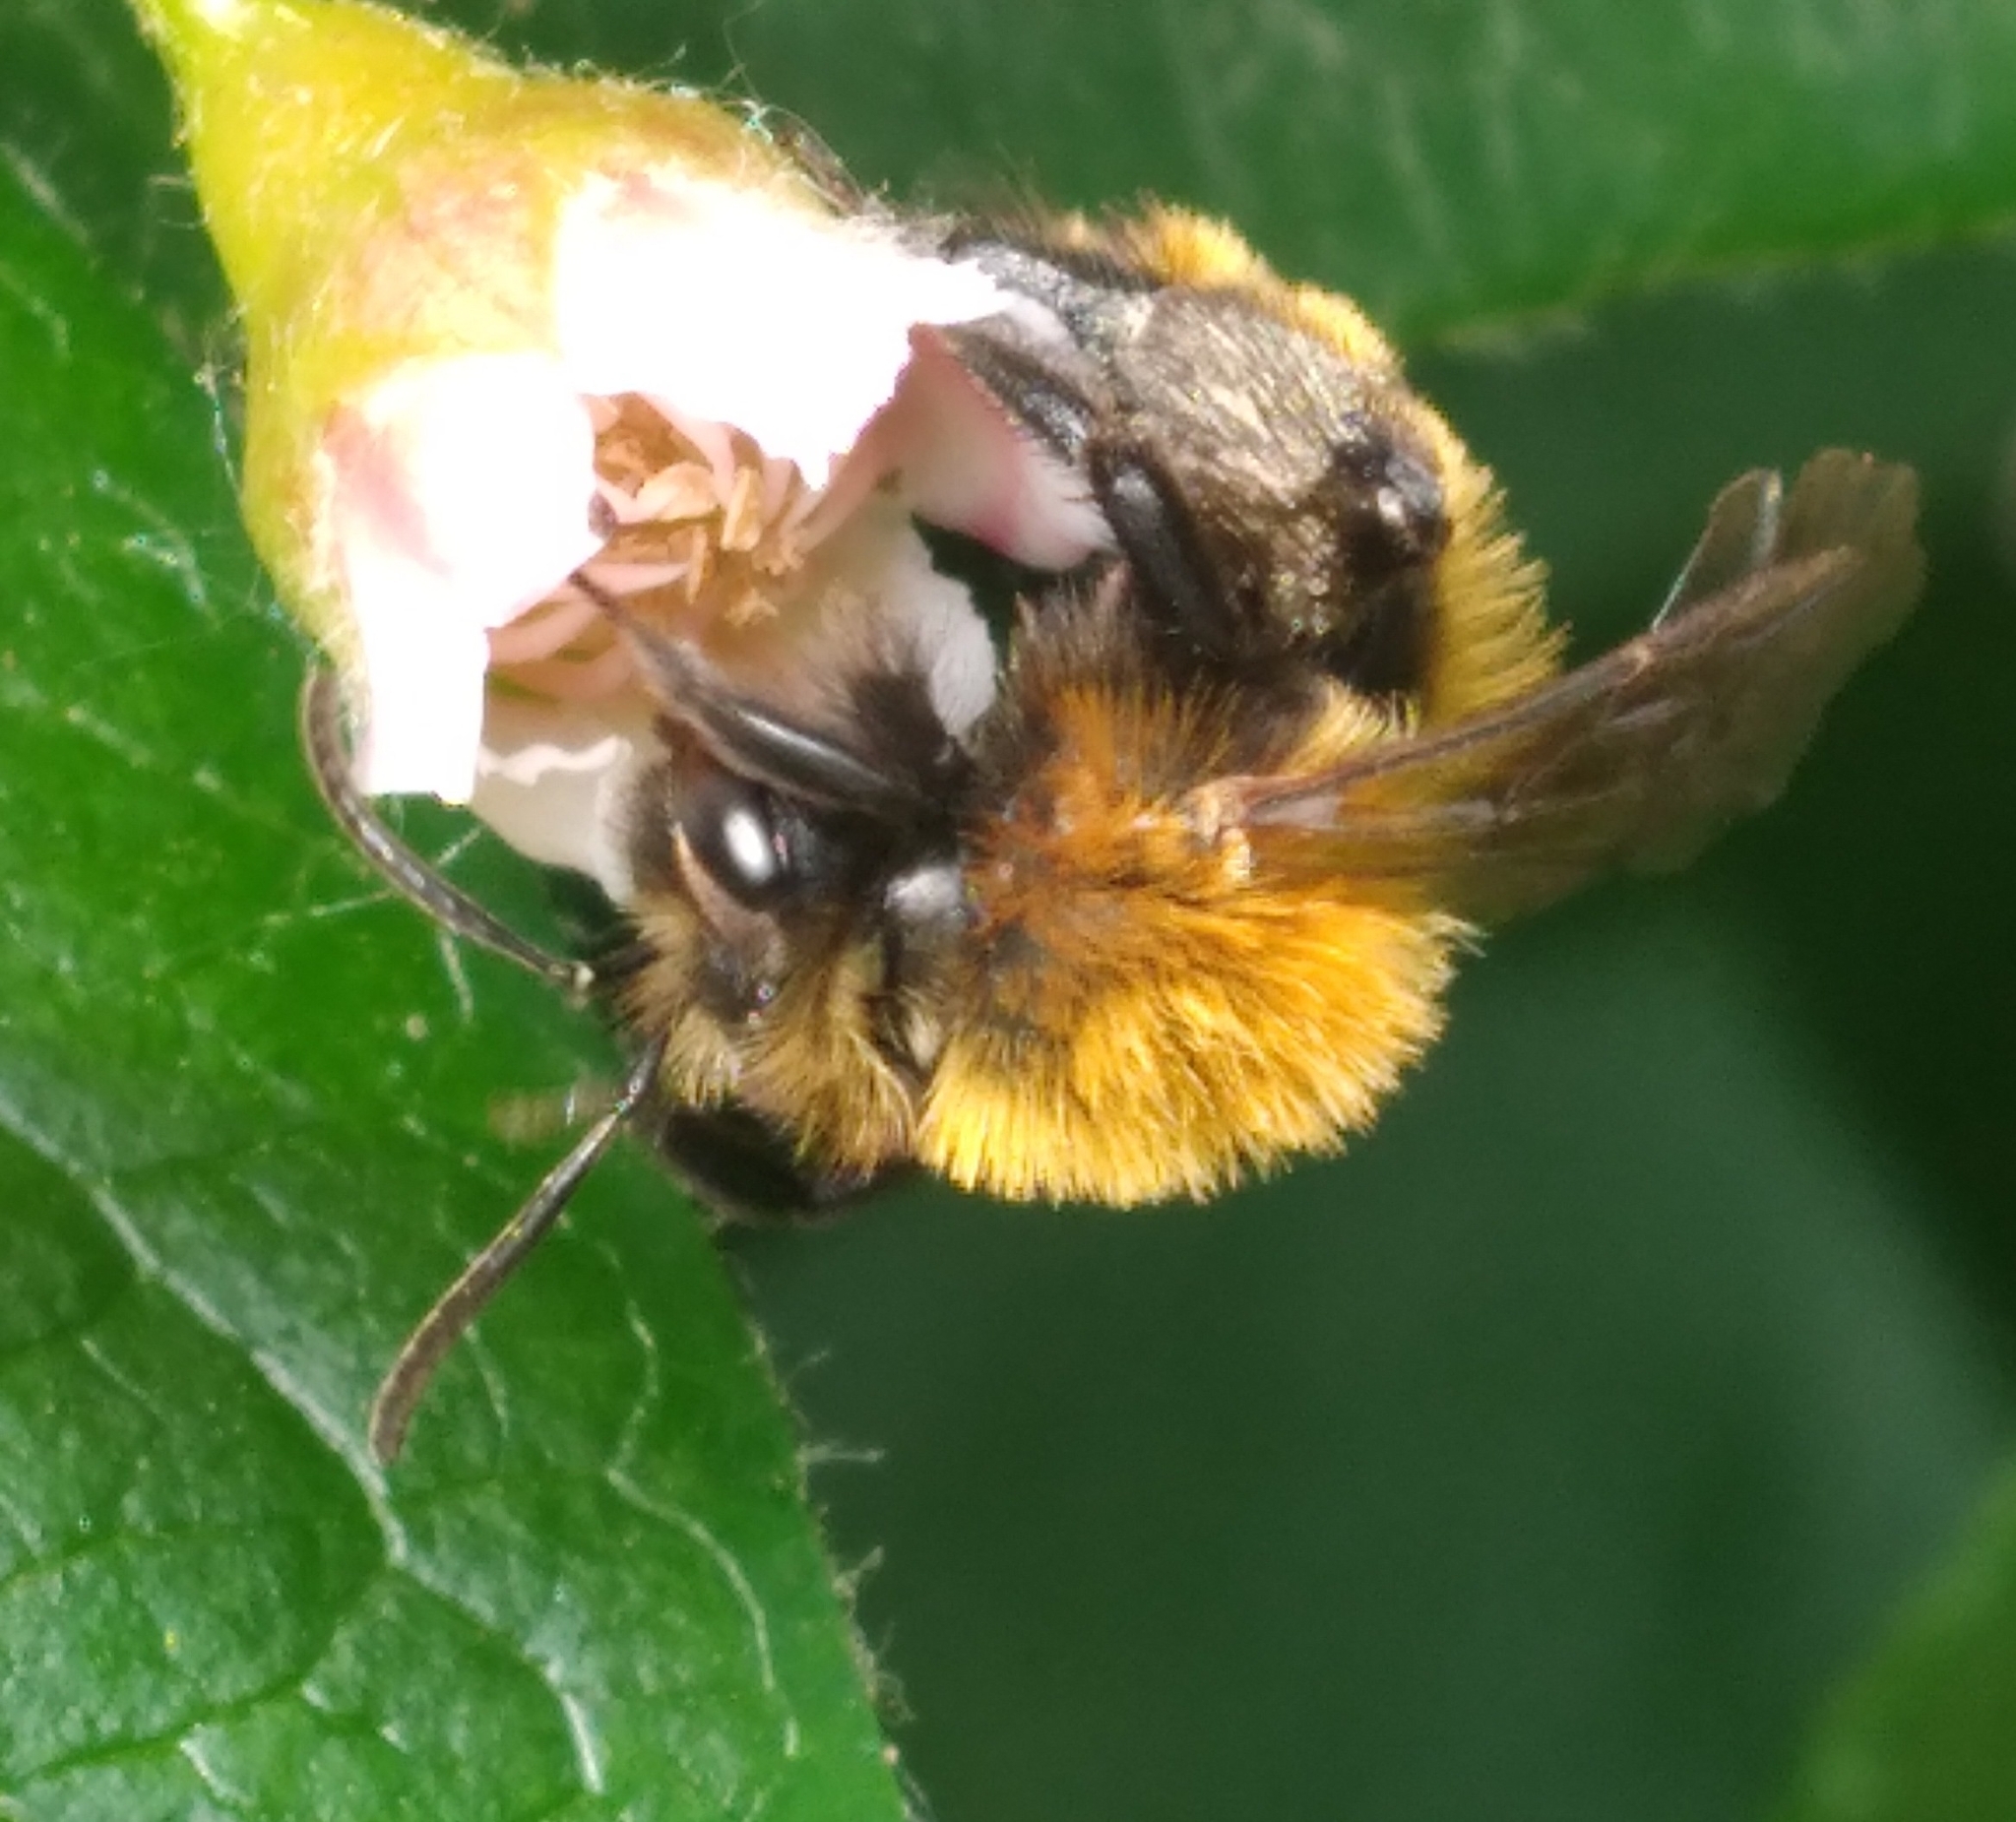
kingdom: Animalia
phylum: Arthropoda
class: Insecta
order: Hymenoptera
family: Andrenidae
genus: Andrena
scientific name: Andrena milwaukeensis
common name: Milwaukee mining bee
